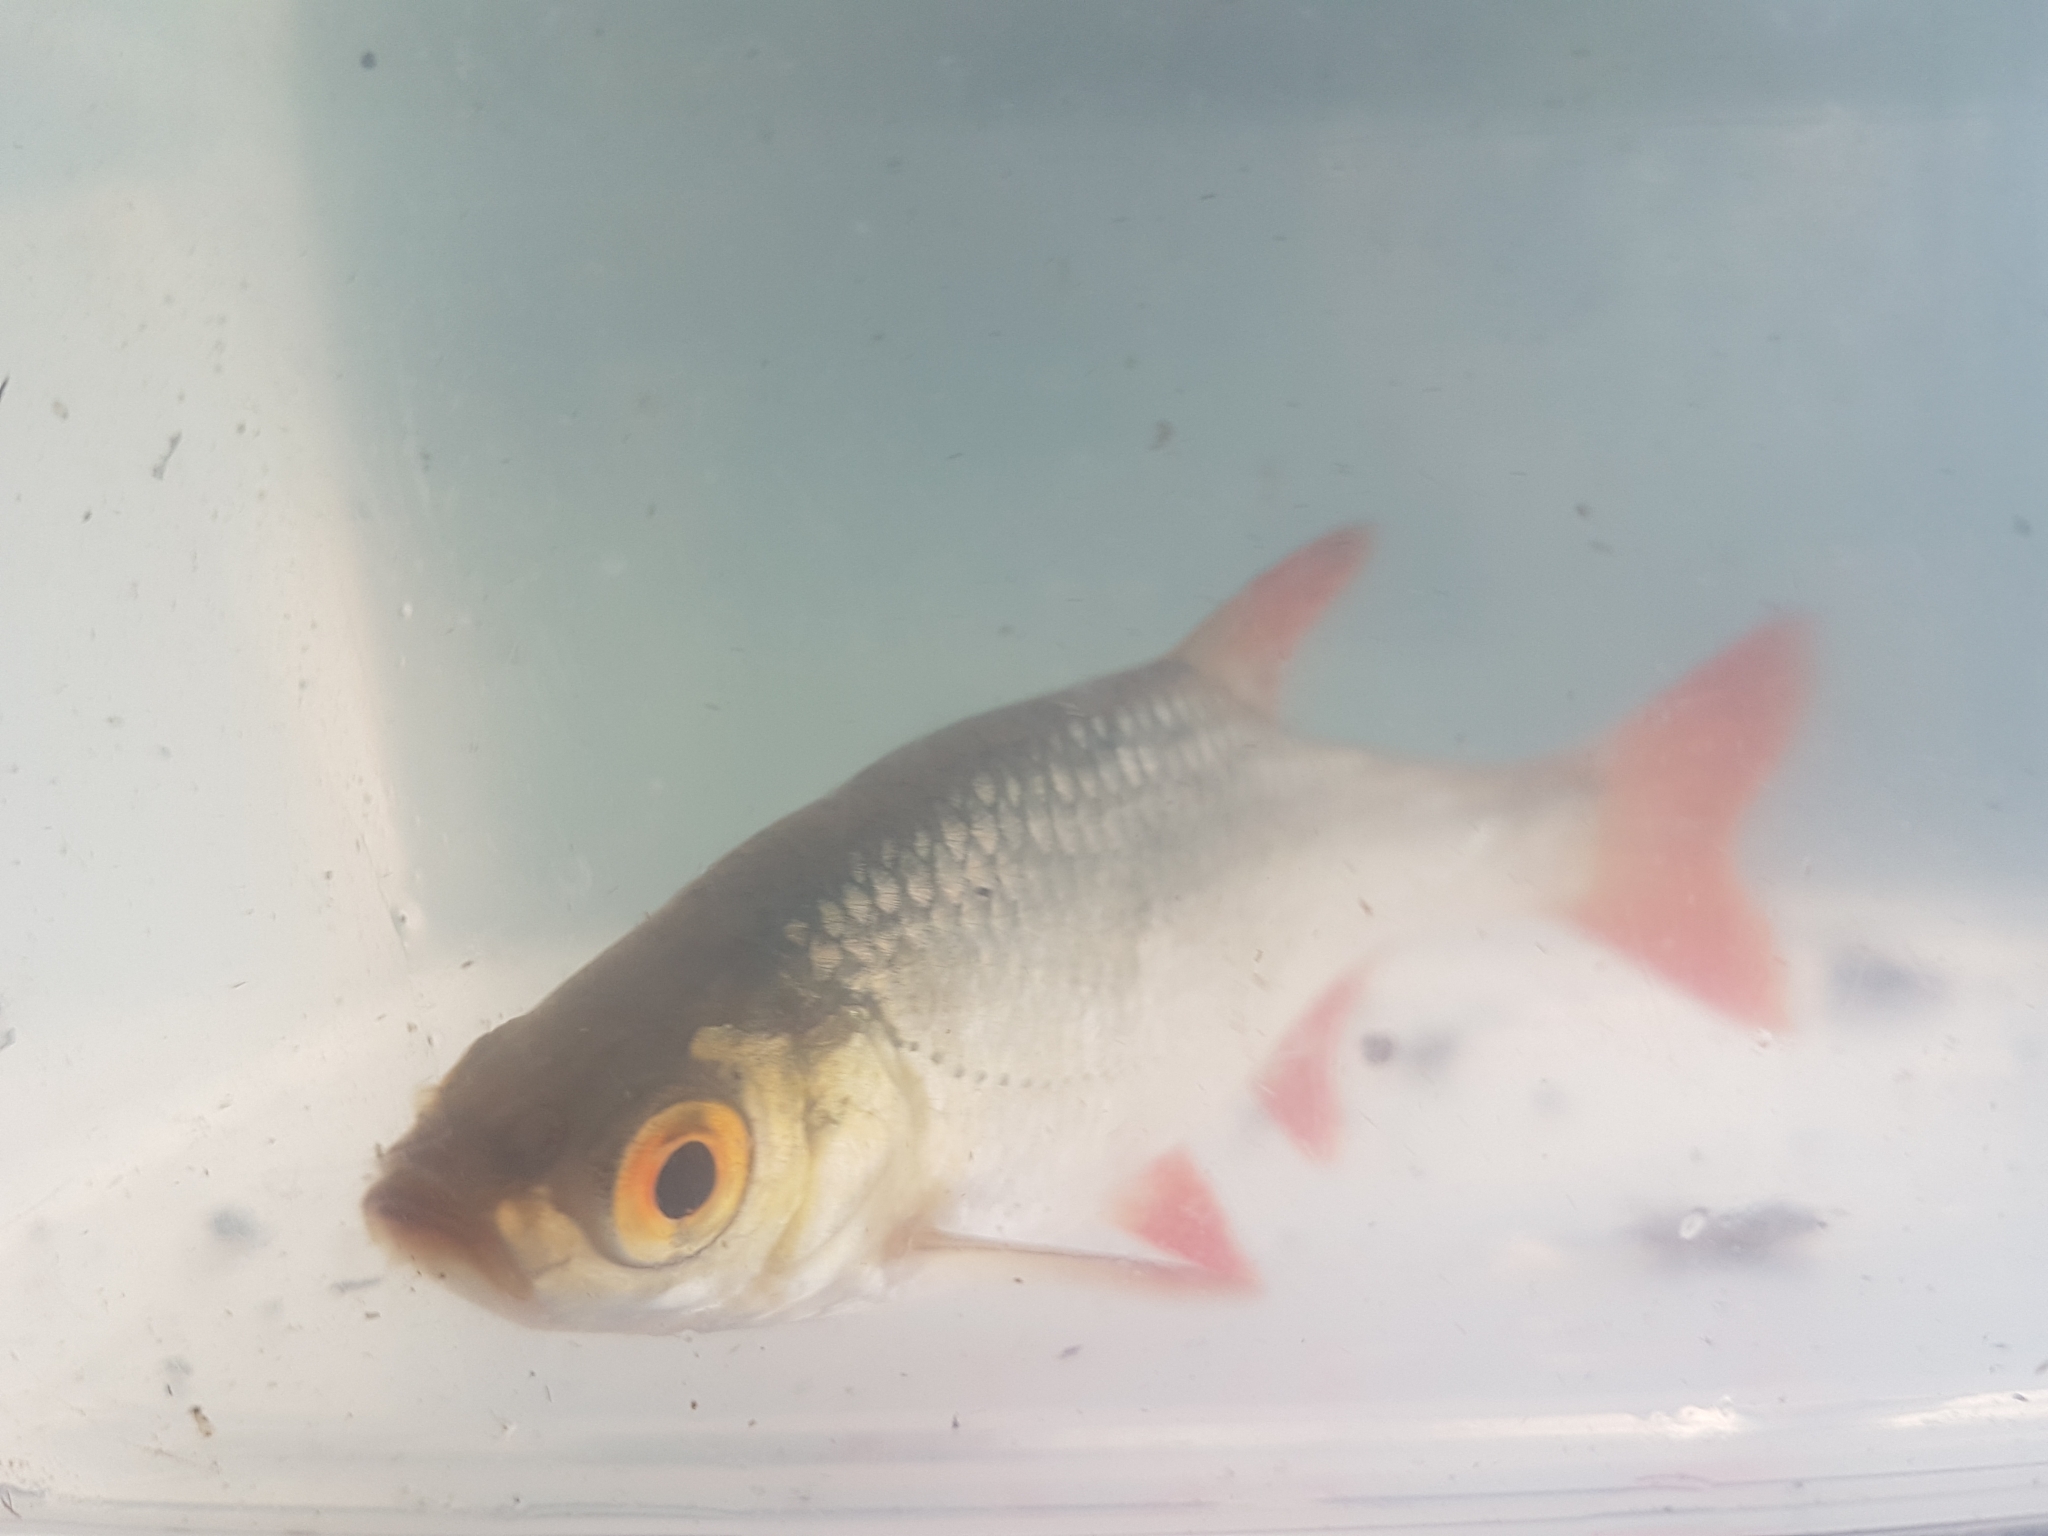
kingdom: Animalia
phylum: Chordata
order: Cypriniformes
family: Cyprinidae
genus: Scardinius
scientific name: Scardinius erythrophthalmus
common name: Rudd
